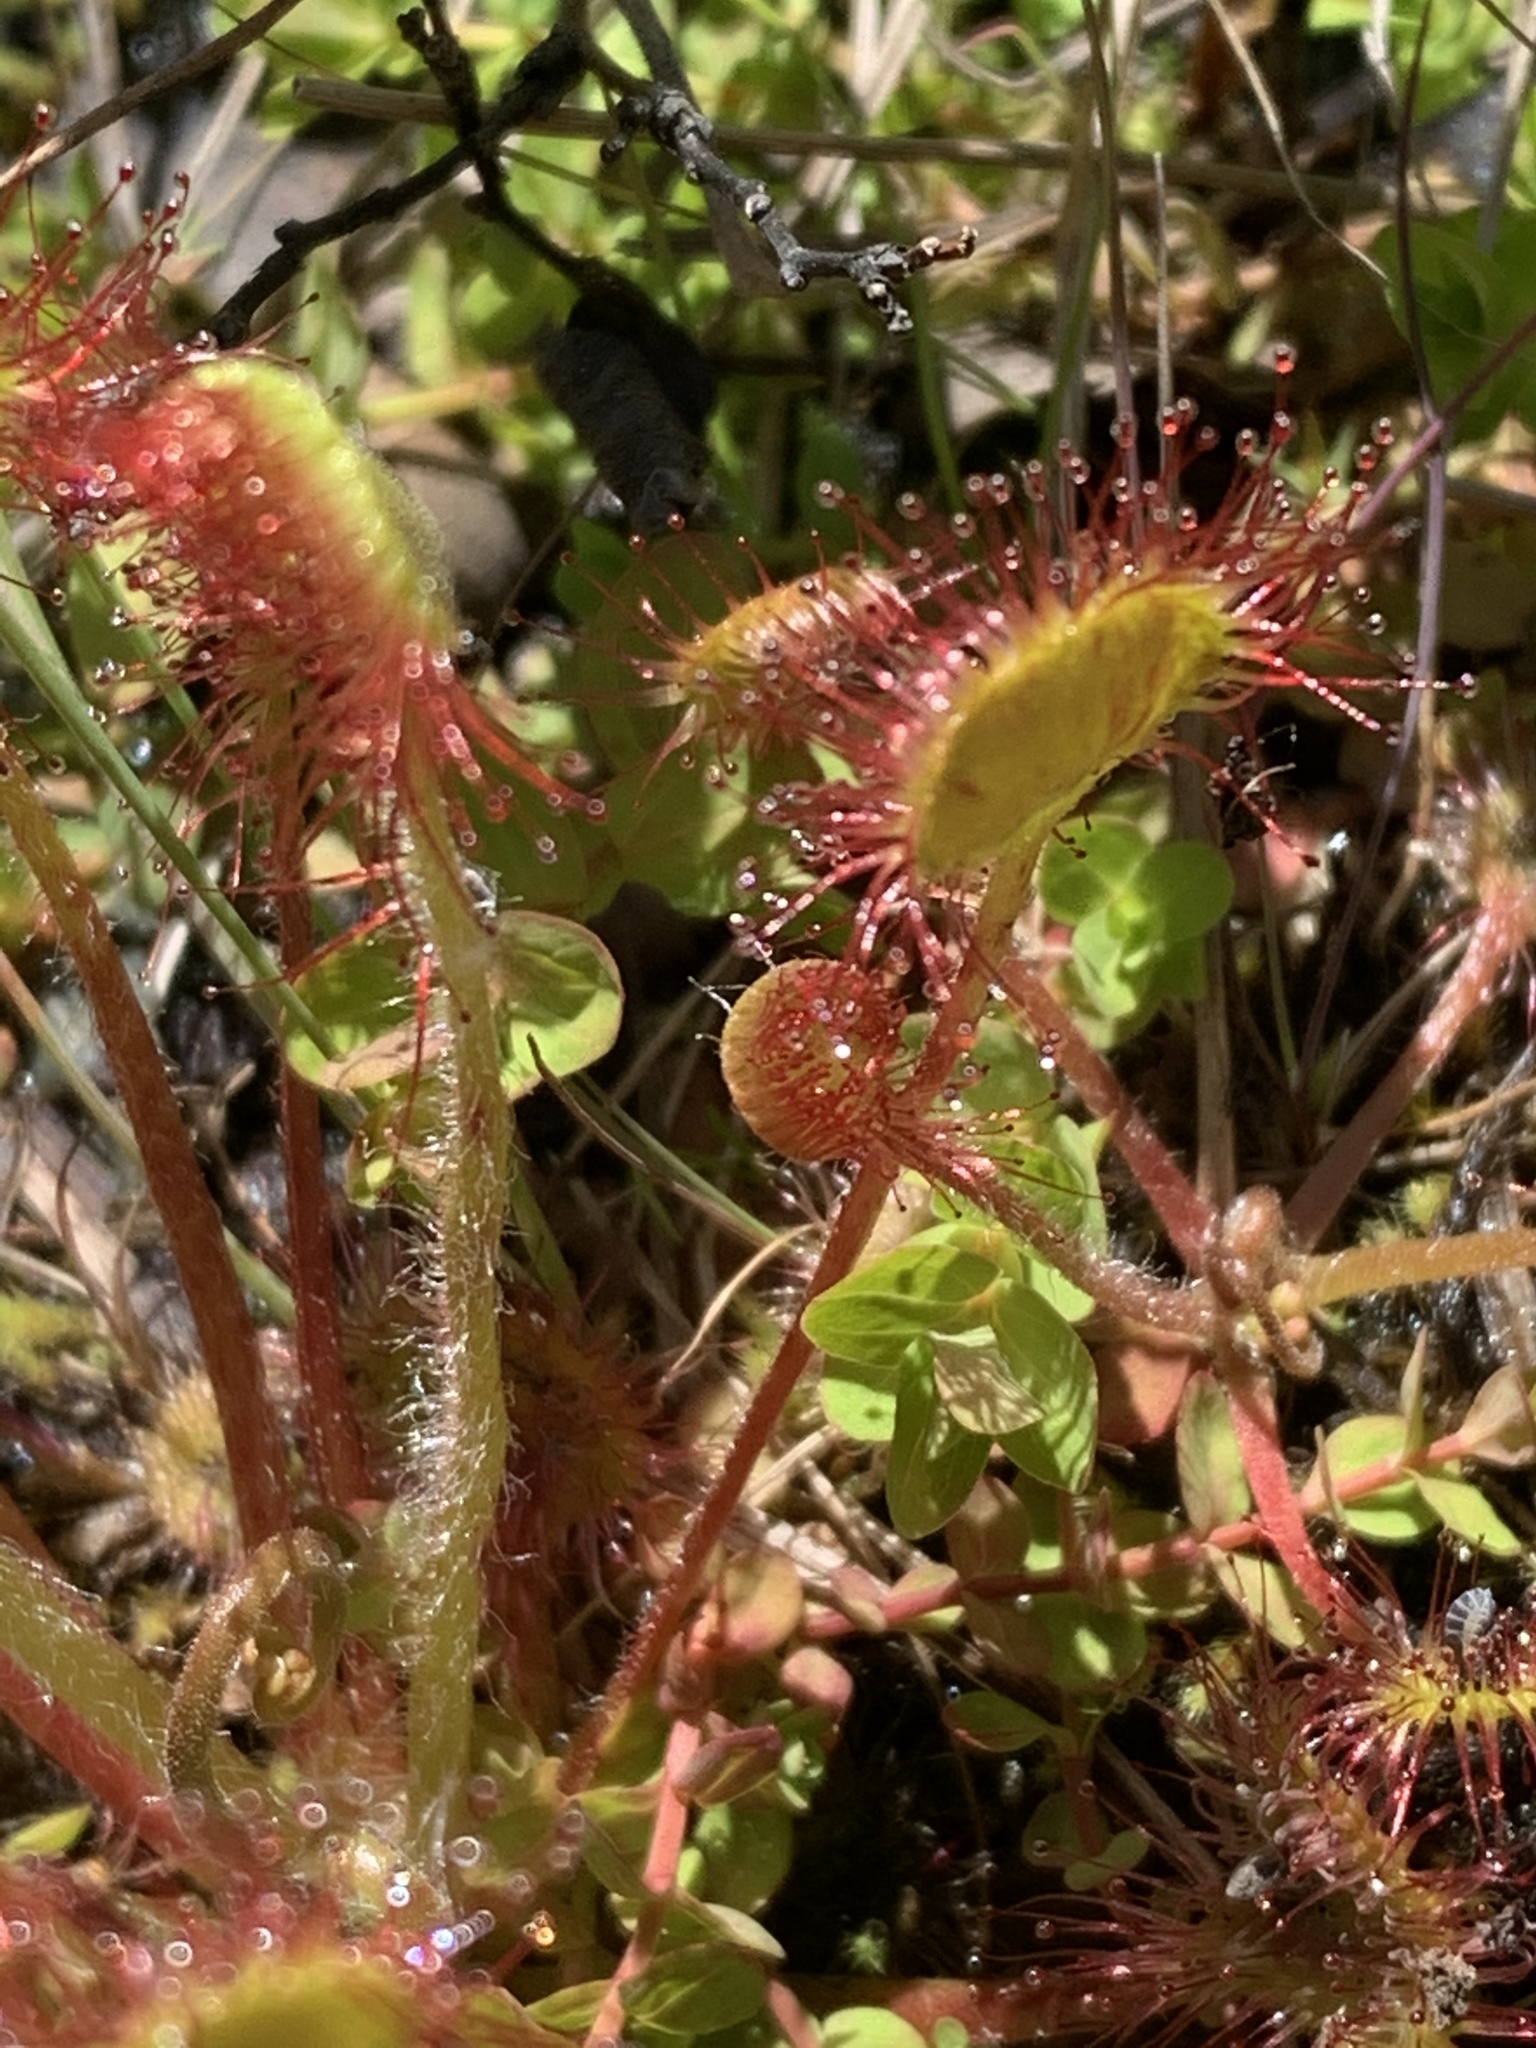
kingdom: Plantae
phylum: Tracheophyta
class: Magnoliopsida
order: Caryophyllales
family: Droseraceae
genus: Drosera
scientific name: Drosera rotundifolia
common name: Round-leaved sundew
